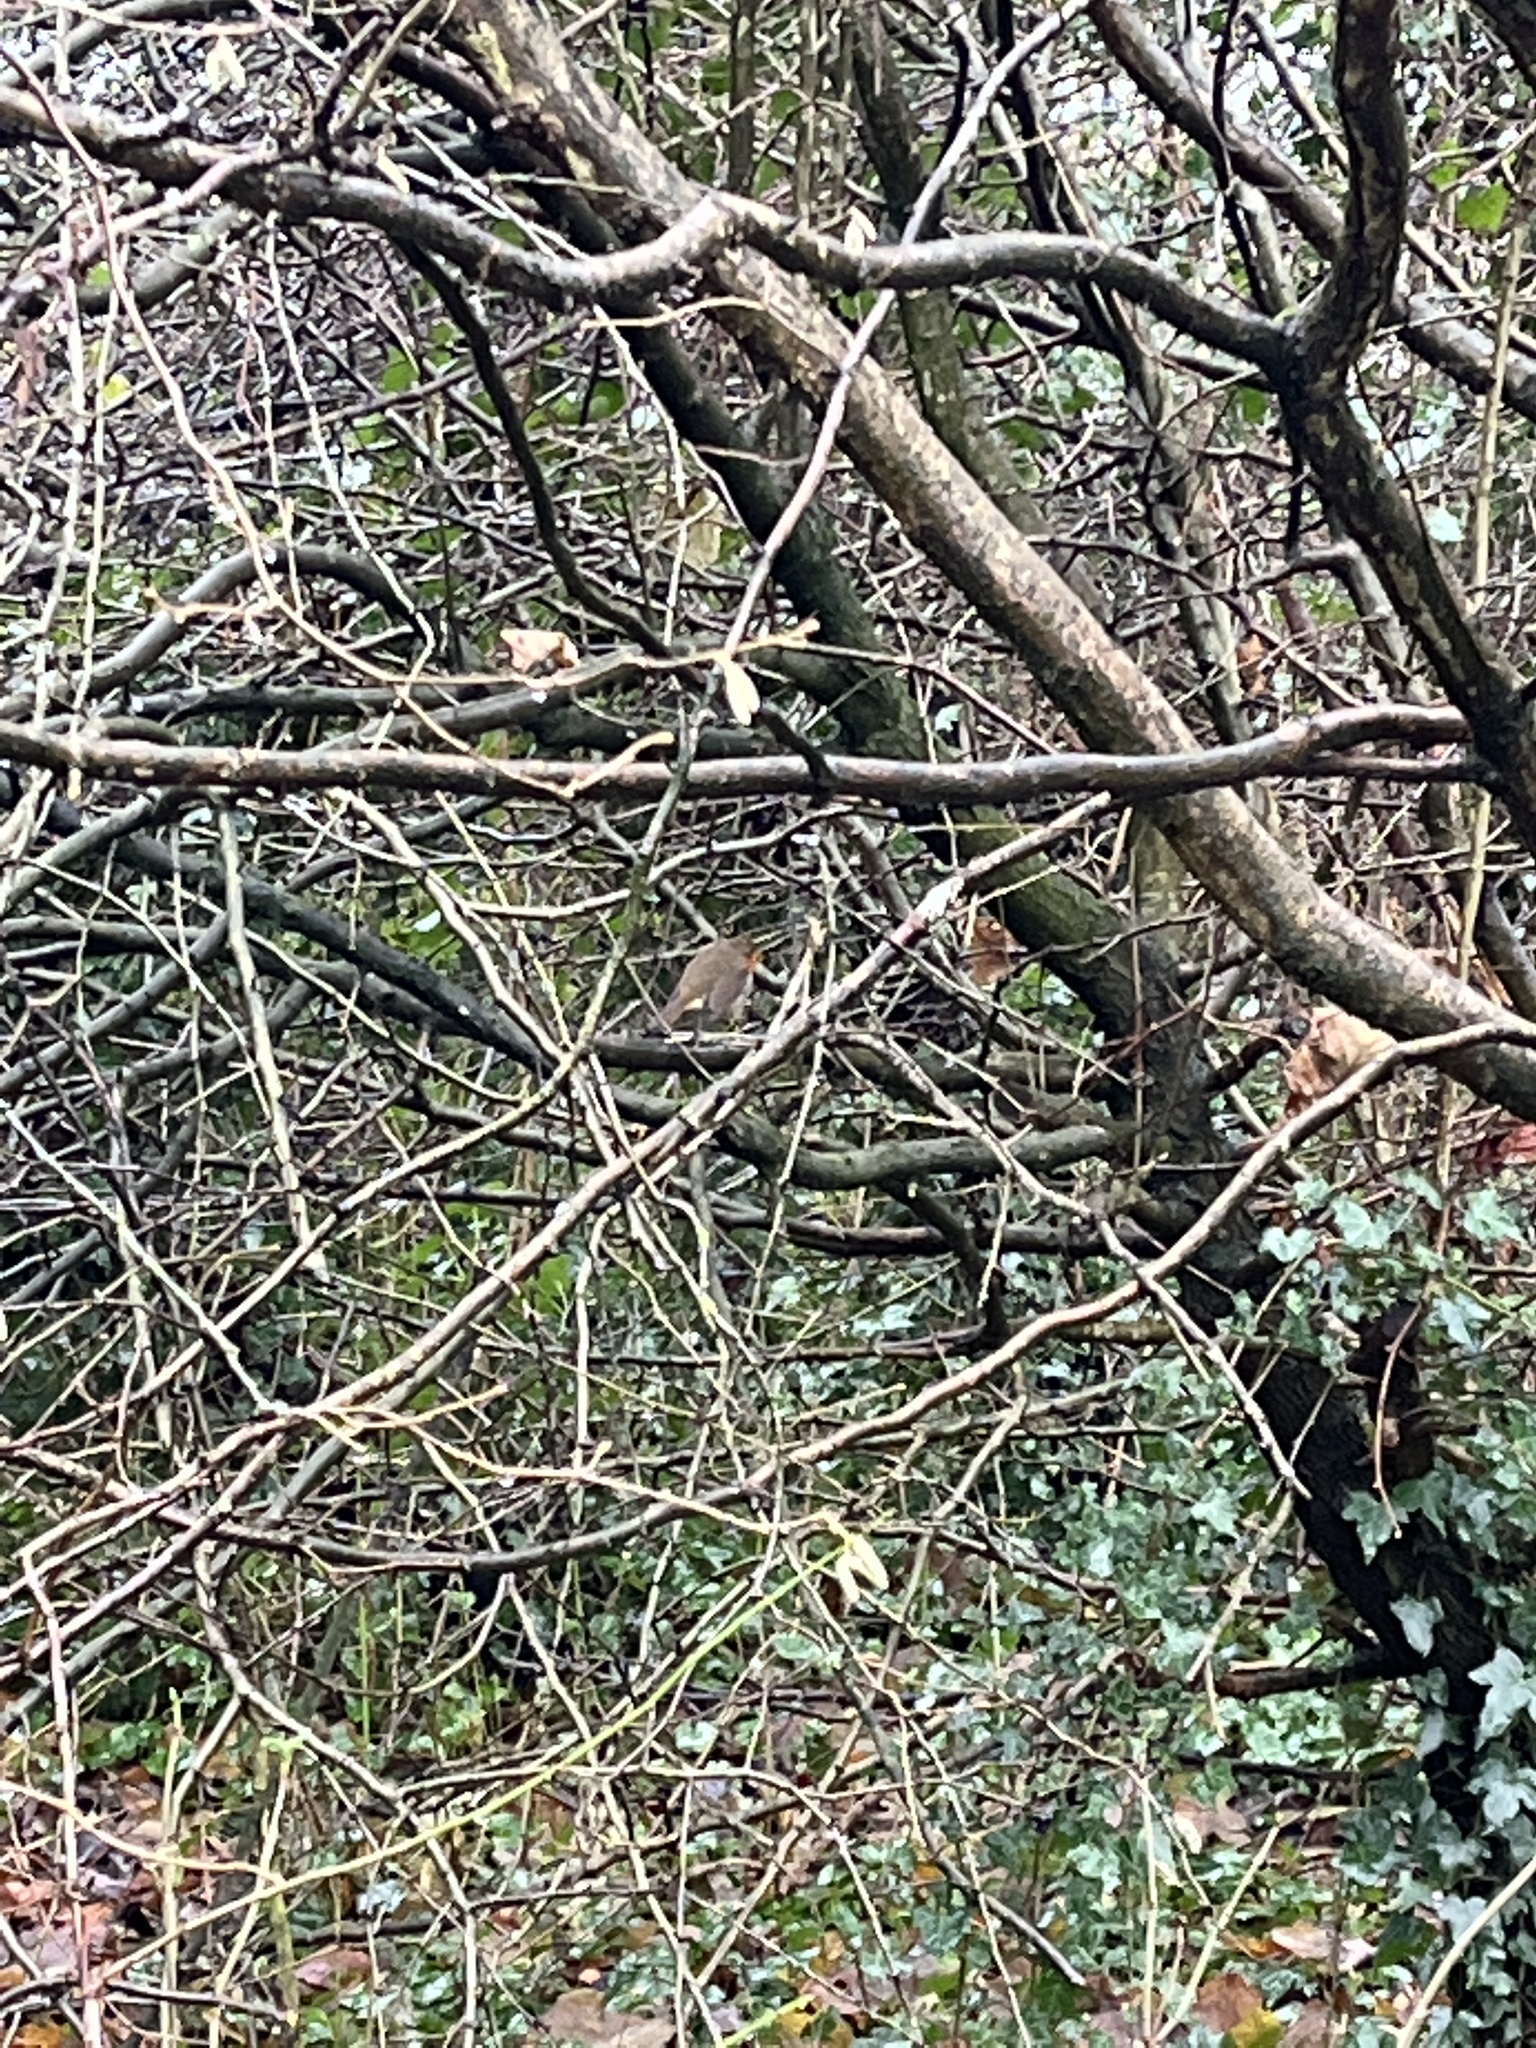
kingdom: Animalia
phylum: Chordata
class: Aves
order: Passeriformes
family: Muscicapidae
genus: Erithacus
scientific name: Erithacus rubecula
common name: European robin
